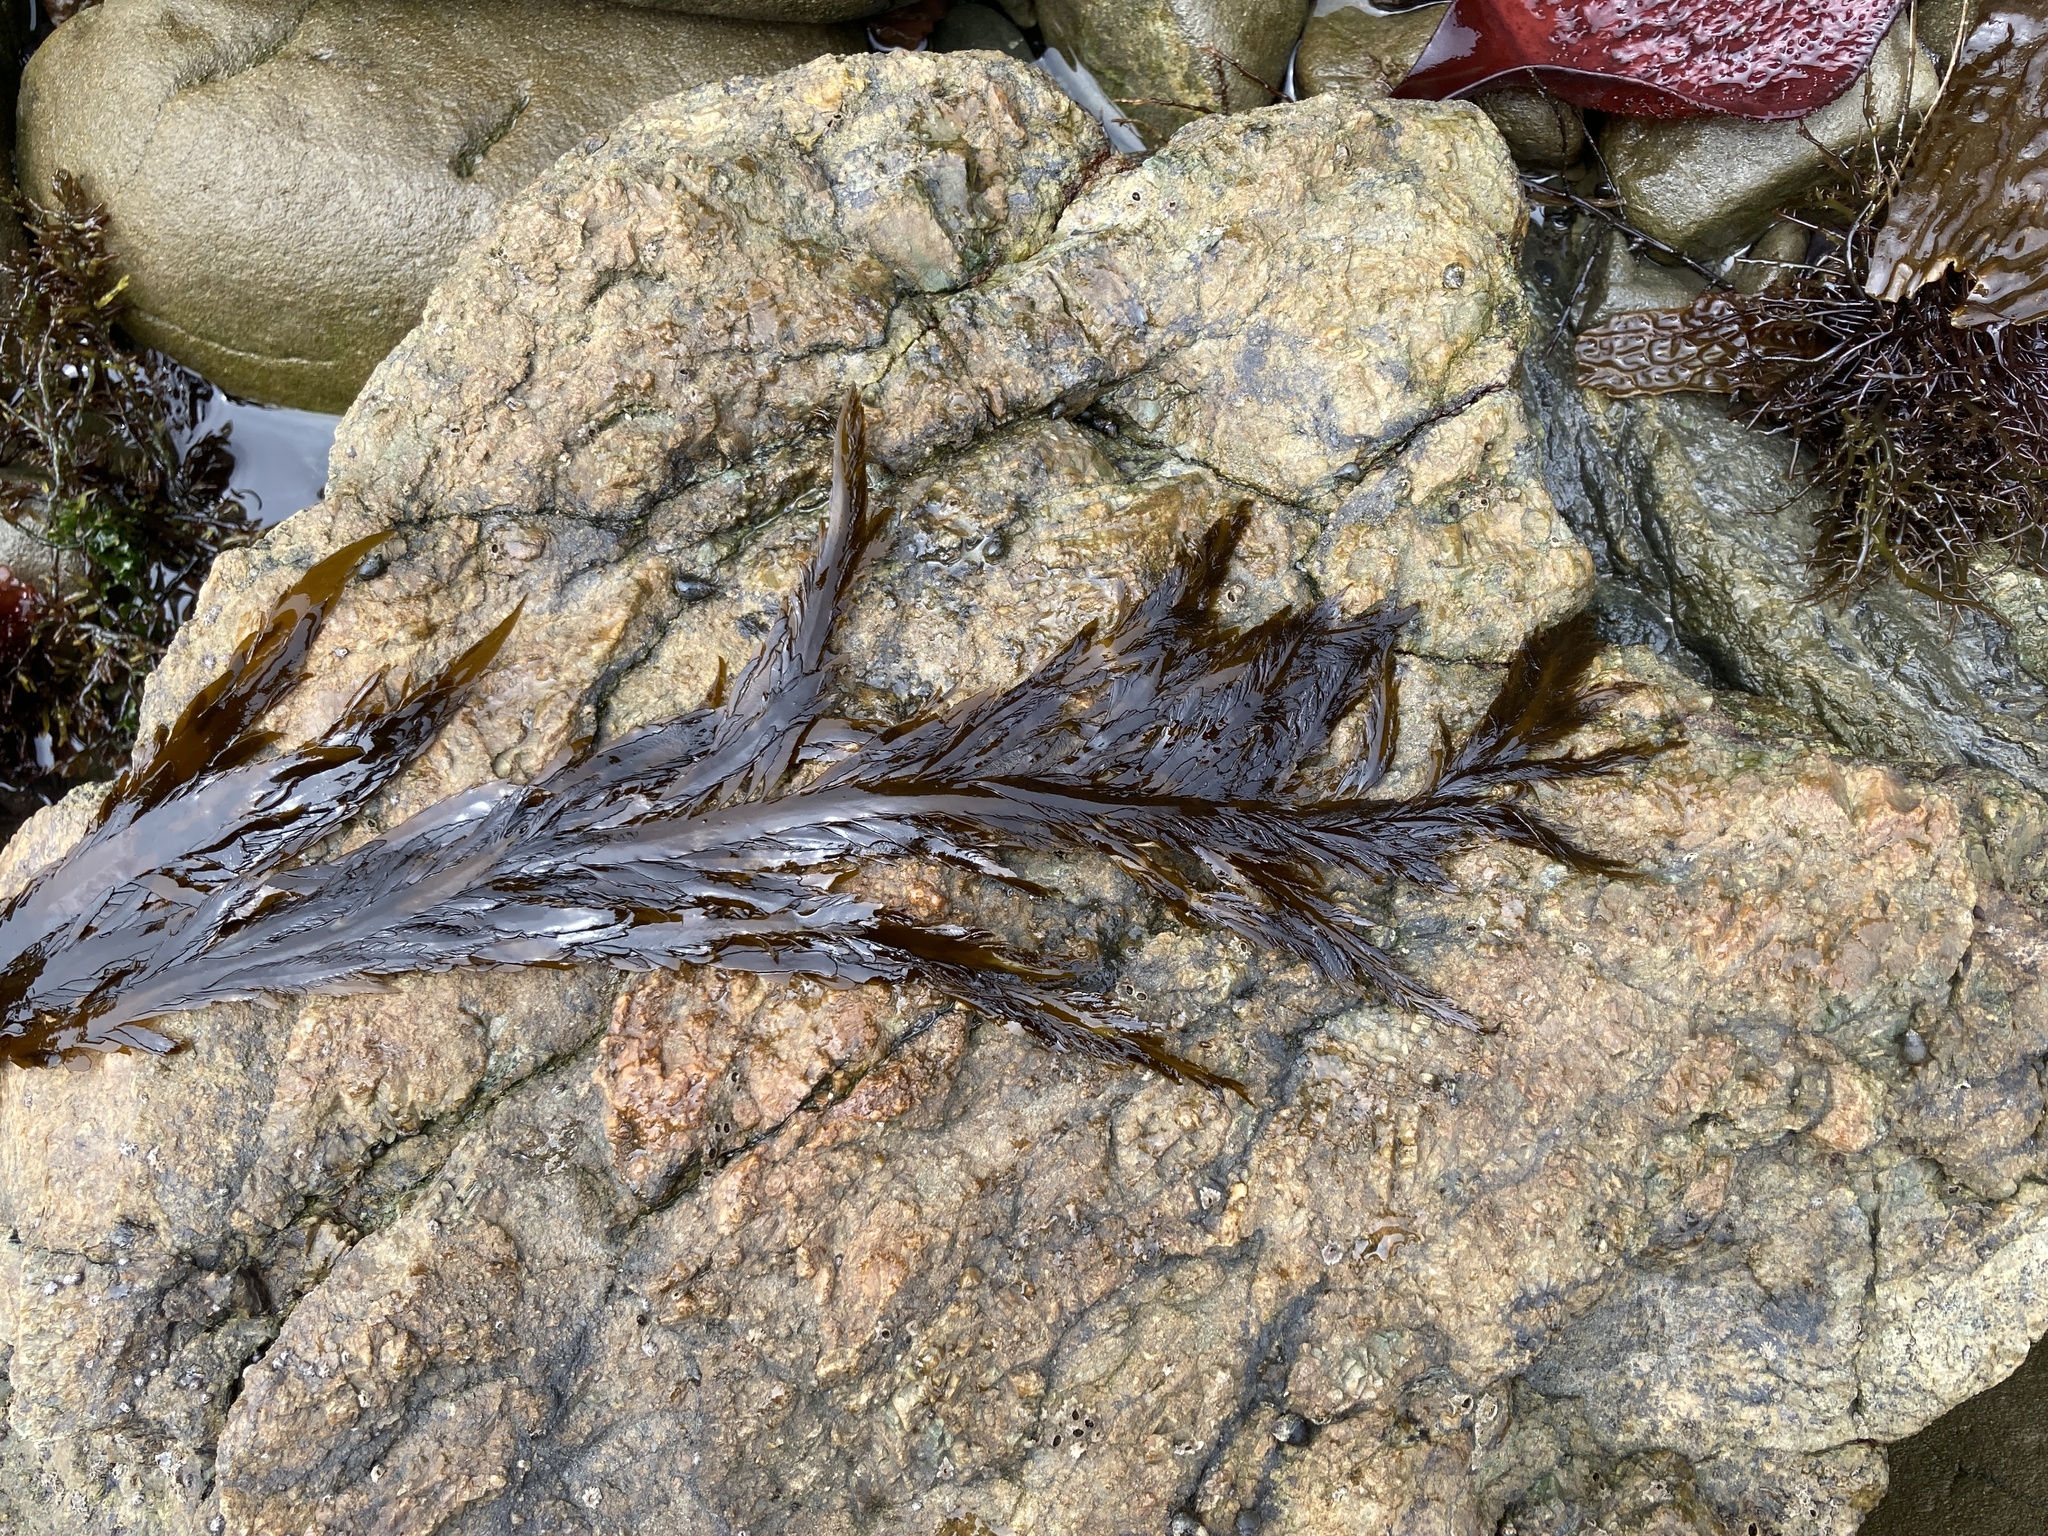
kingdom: Chromista
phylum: Ochrophyta
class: Phaeophyceae
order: Desmarestiales
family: Desmarestiaceae
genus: Desmarestia
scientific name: Desmarestia ligulata
